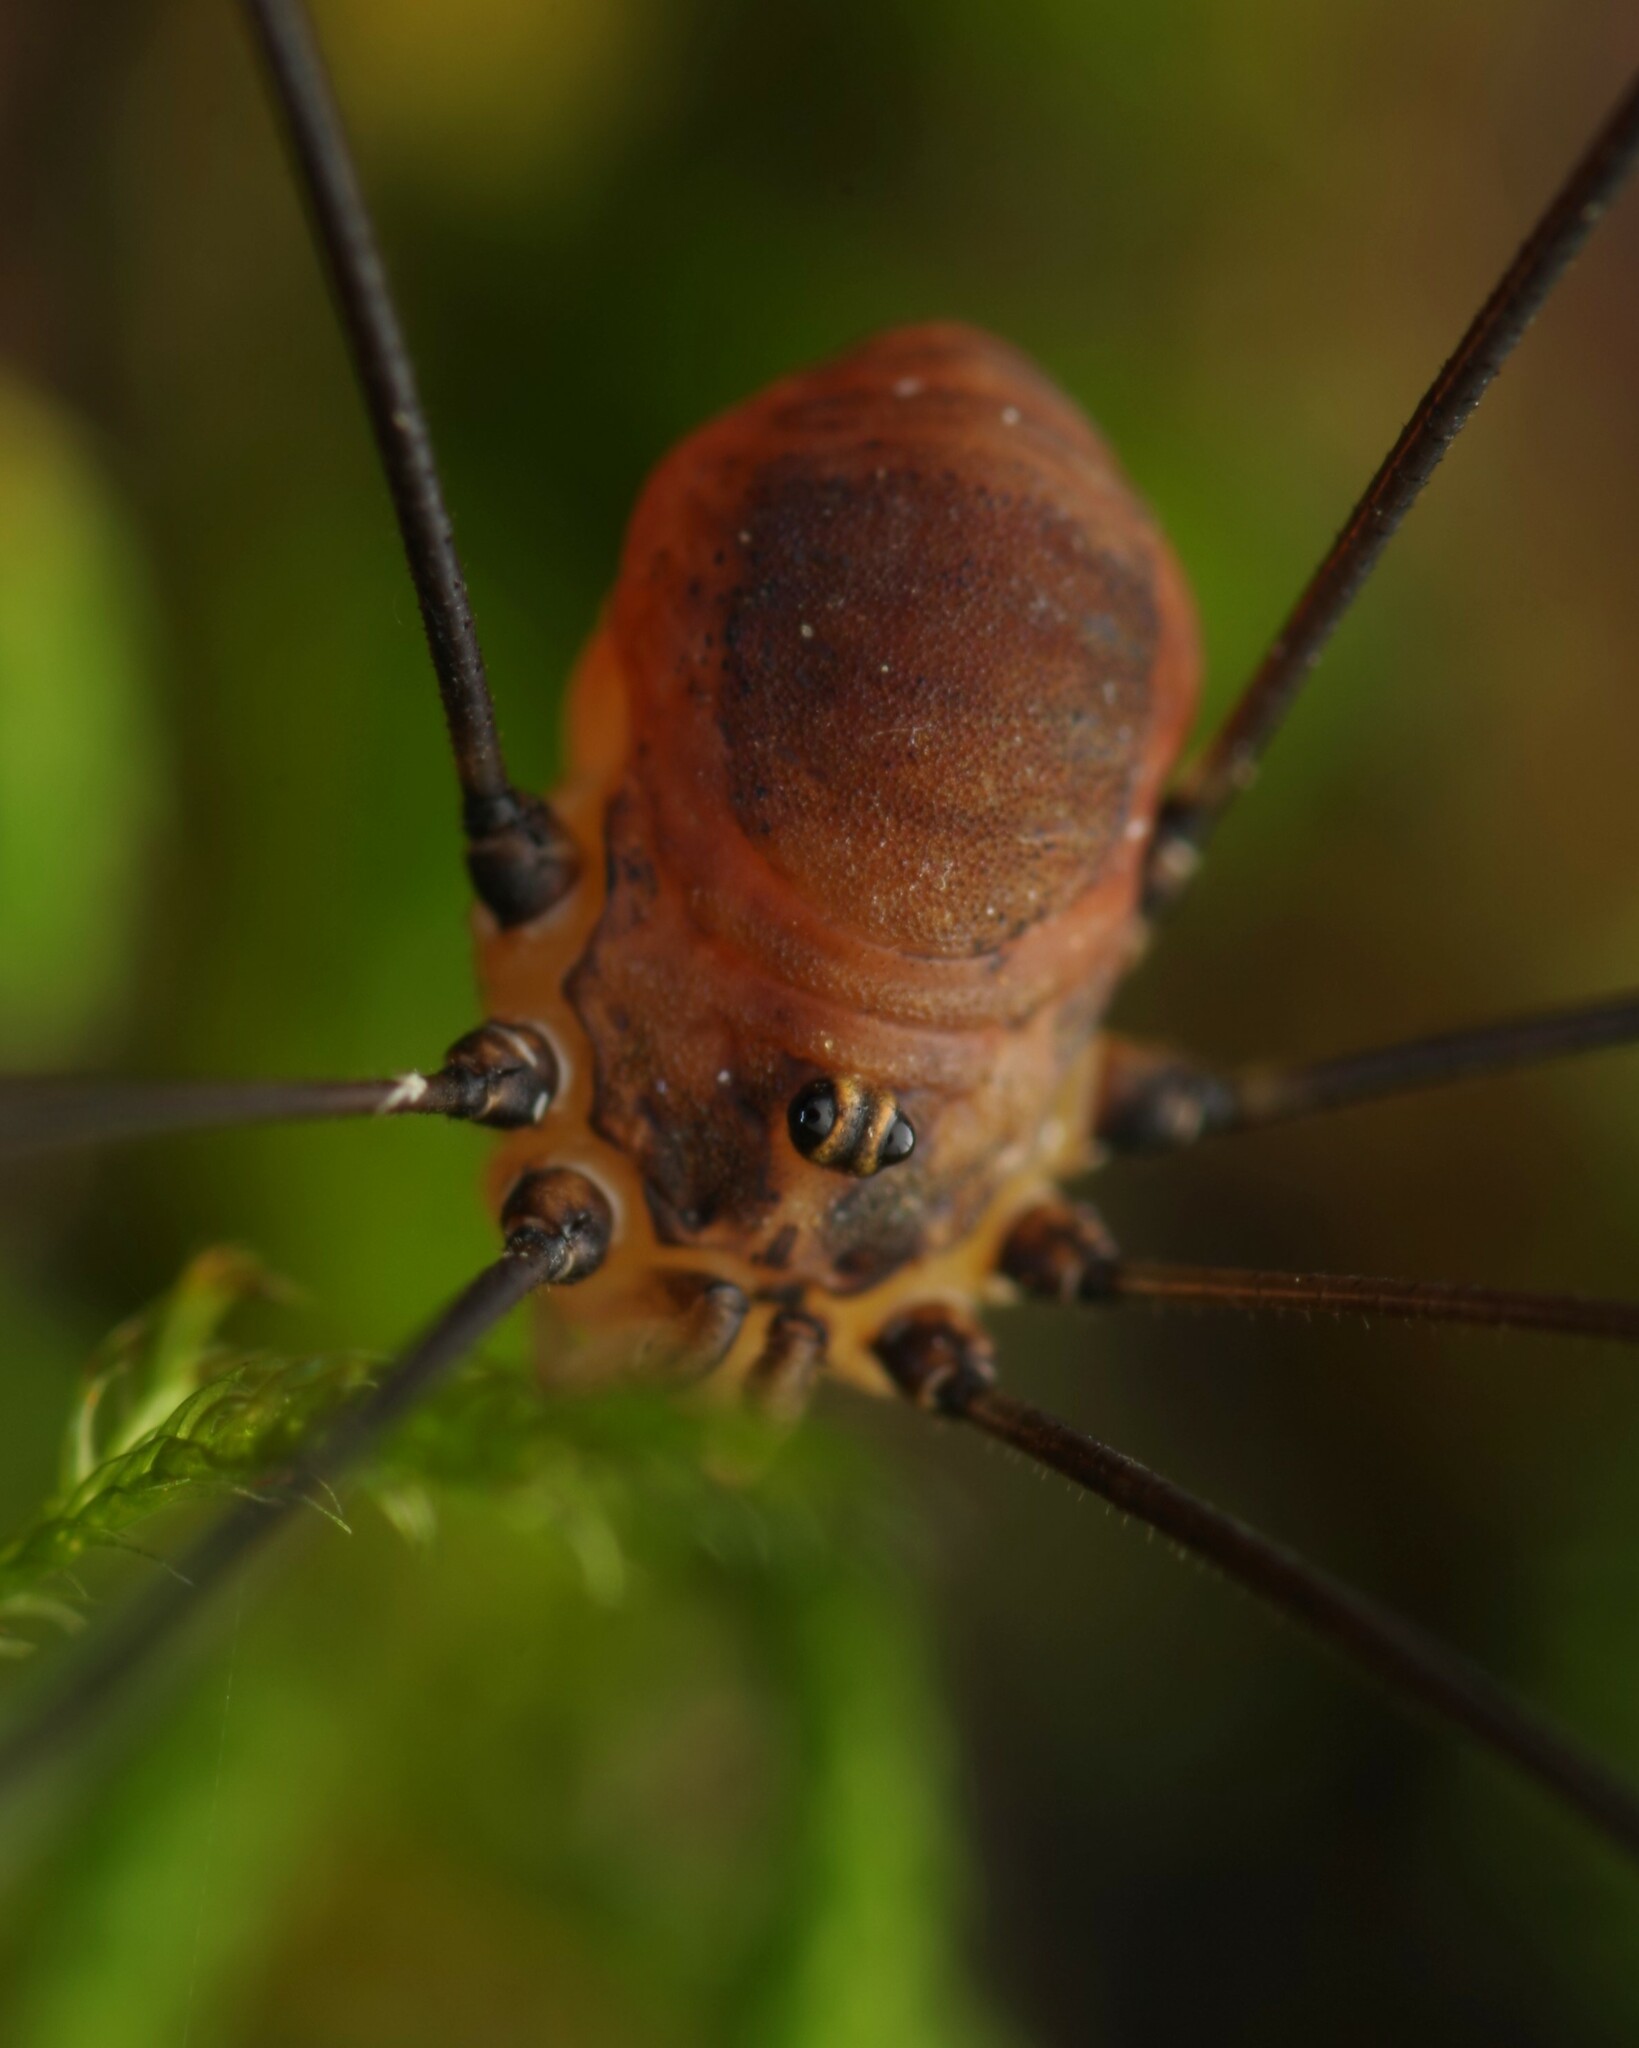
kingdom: Animalia
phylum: Arthropoda
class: Arachnida
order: Opiliones
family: Sclerosomatidae
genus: Leiobunum
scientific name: Leiobunum blackwalli
